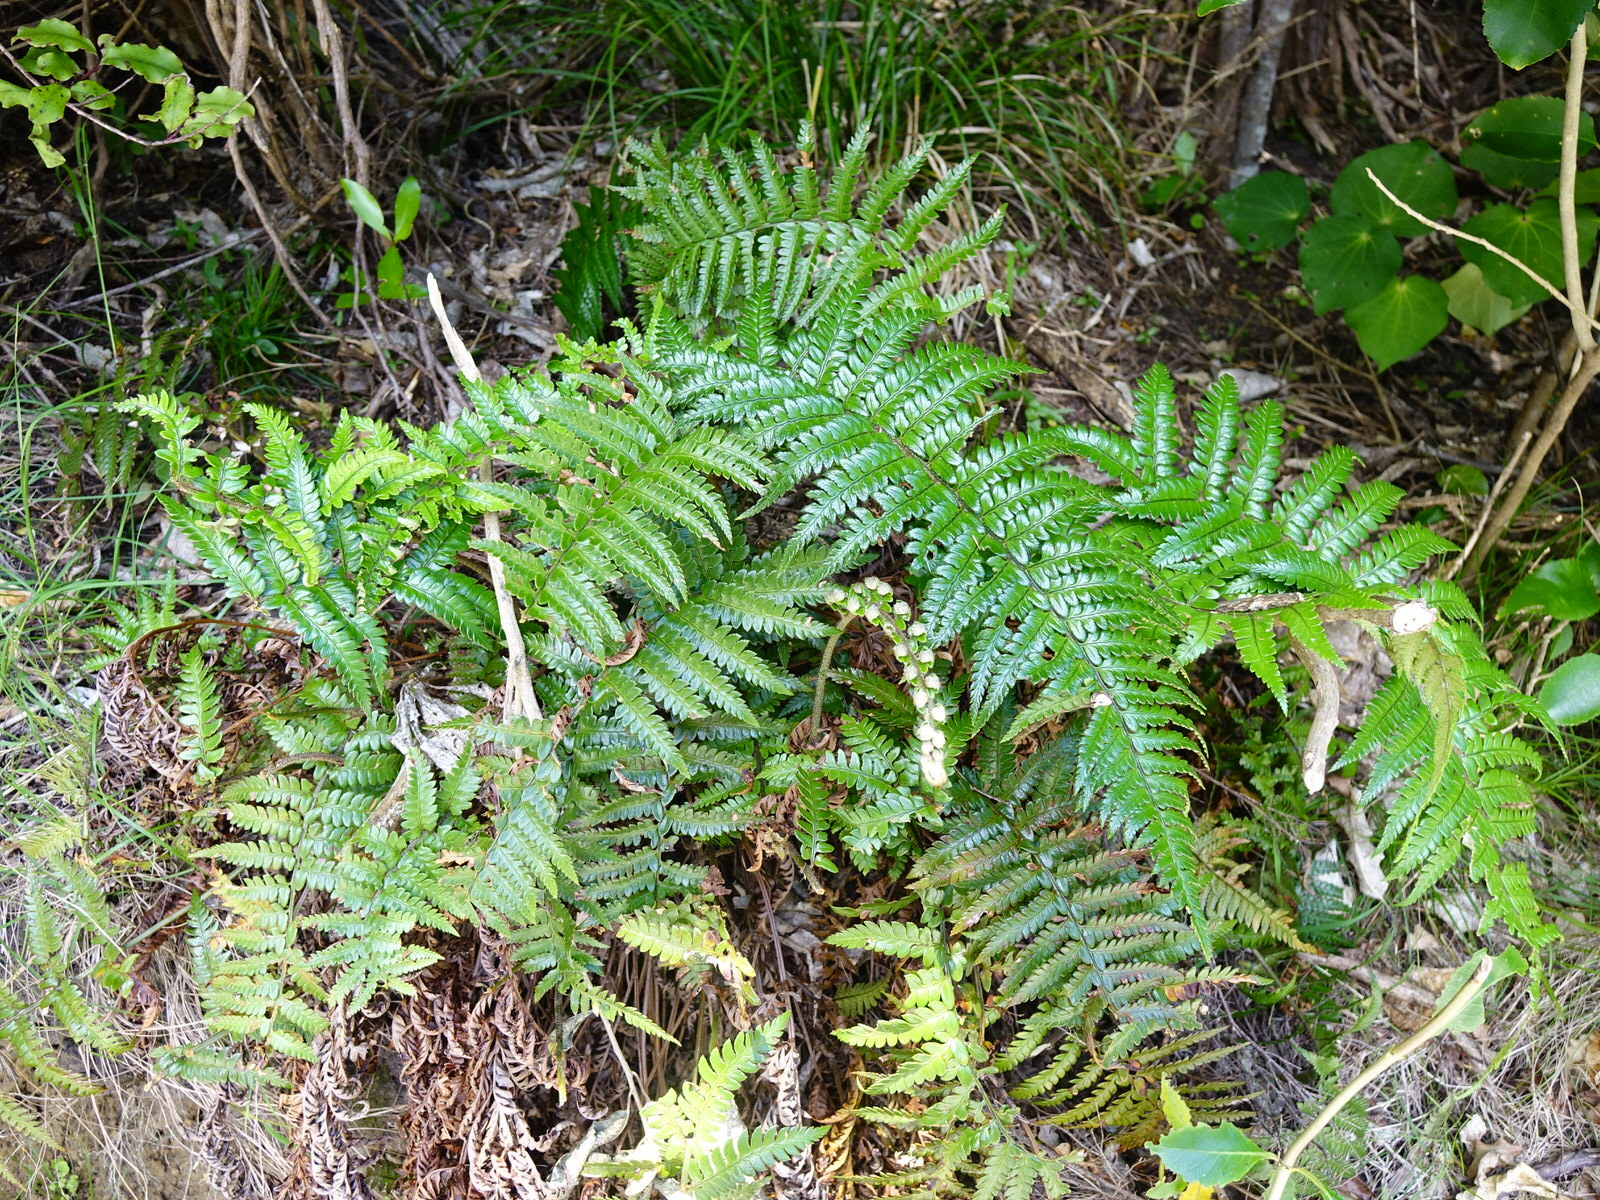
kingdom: Plantae
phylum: Tracheophyta
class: Polypodiopsida
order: Polypodiales
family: Dryopteridaceae
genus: Polystichum
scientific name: Polystichum wawranum
